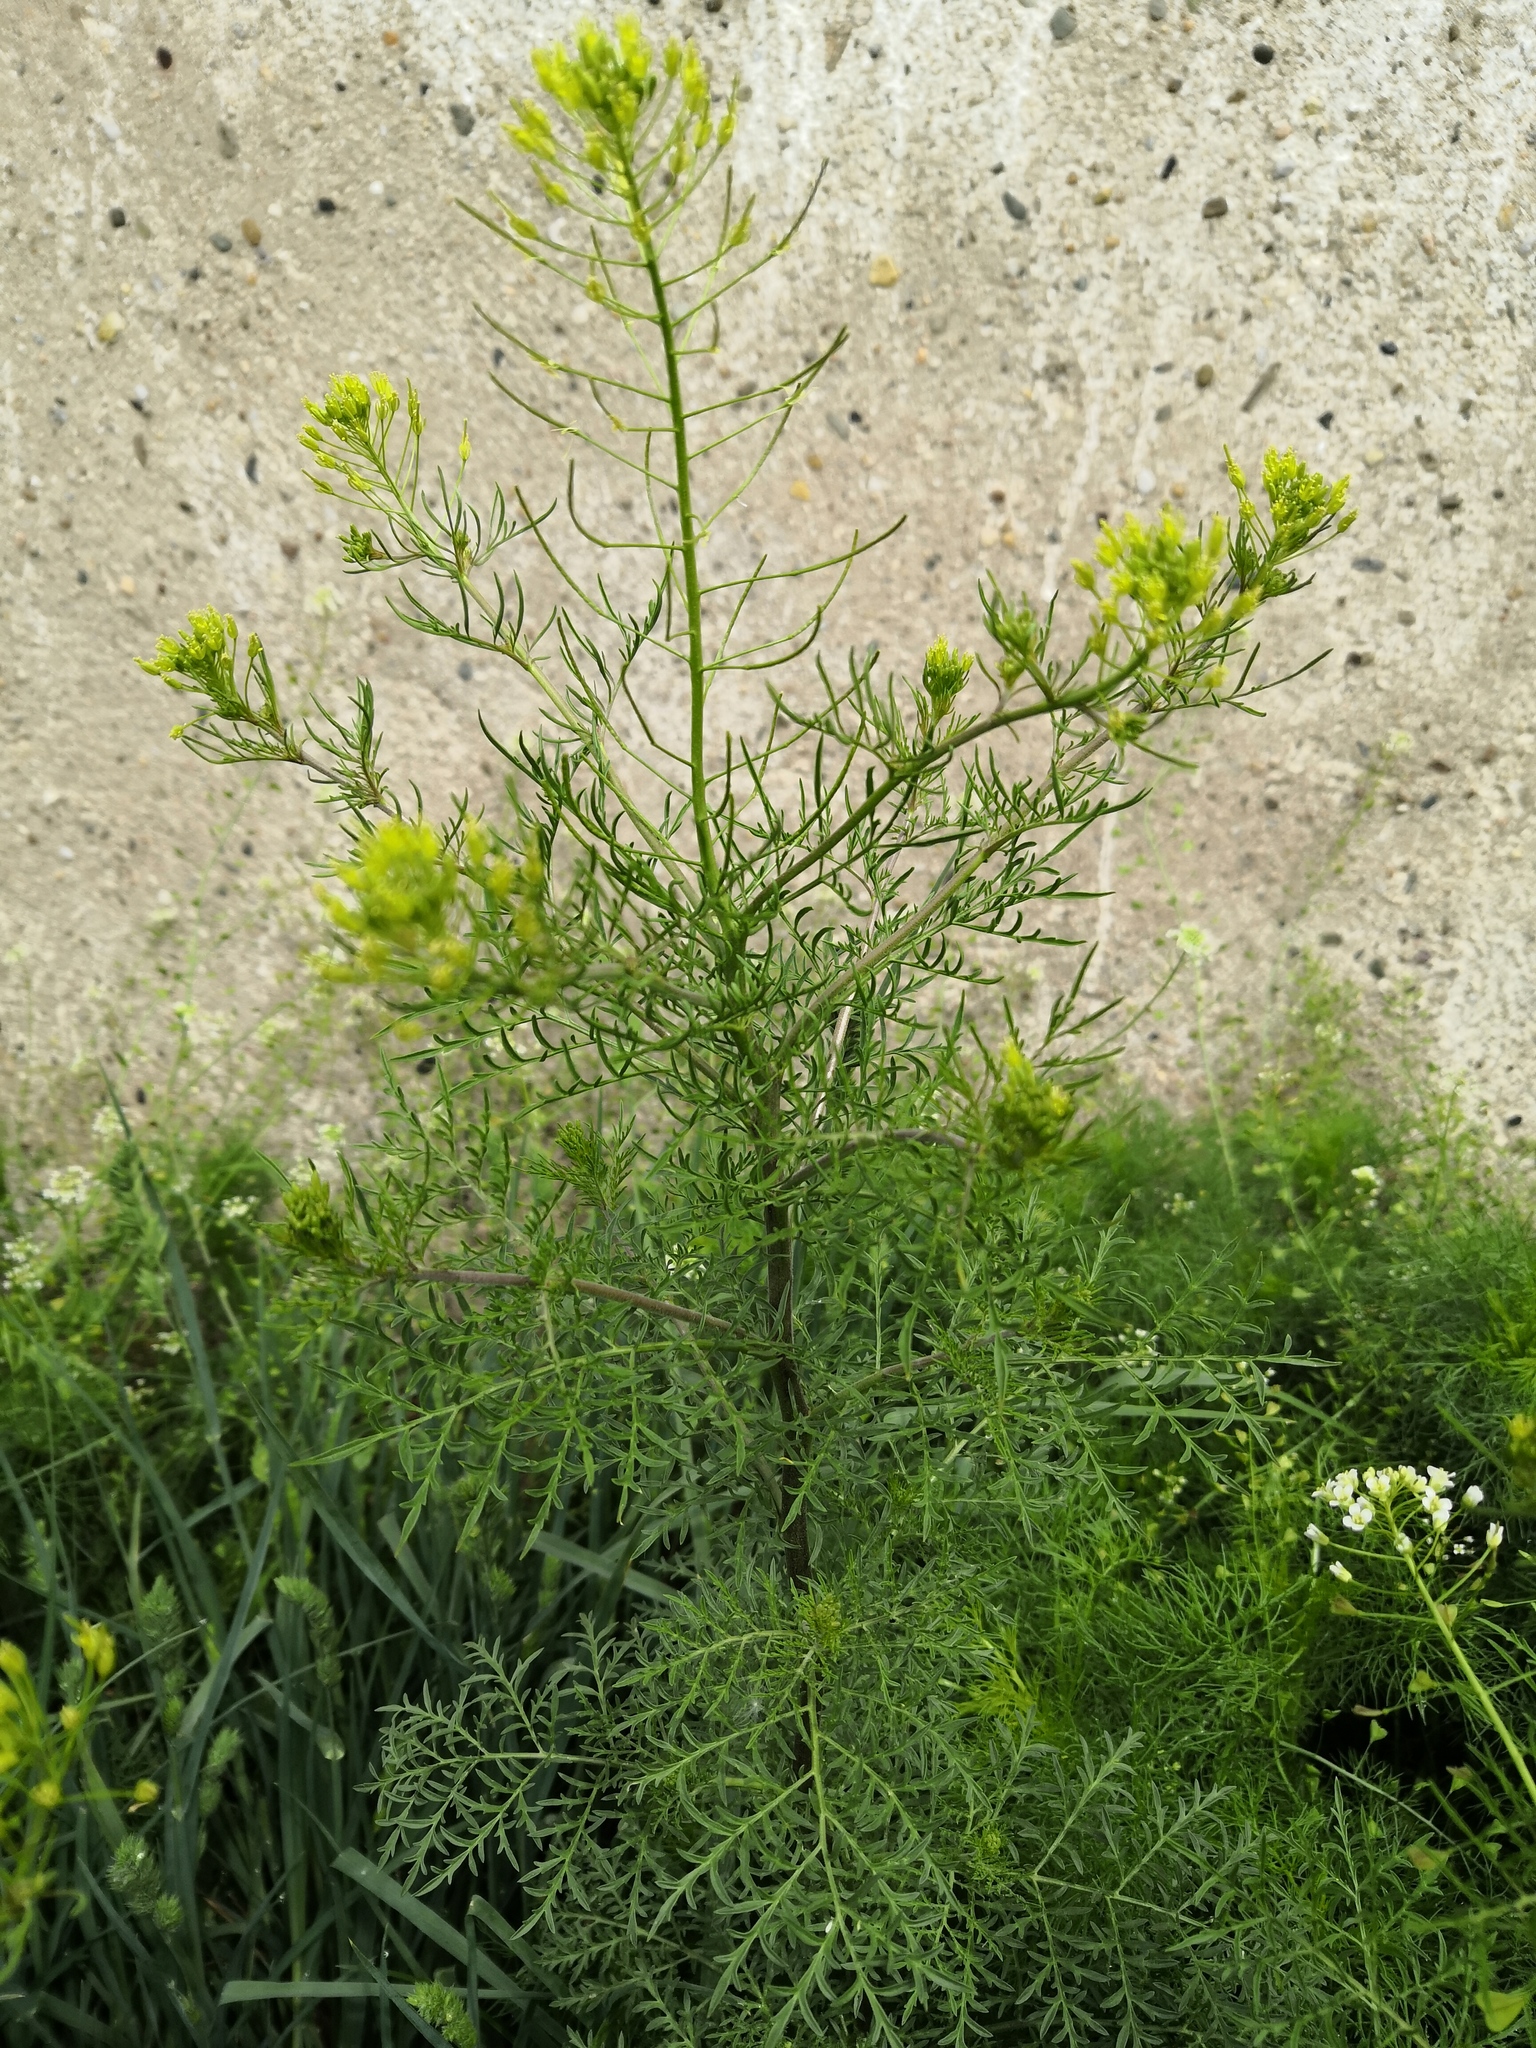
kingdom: Plantae
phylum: Tracheophyta
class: Magnoliopsida
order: Brassicales
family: Brassicaceae
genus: Descurainia
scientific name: Descurainia sophia
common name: Flixweed
